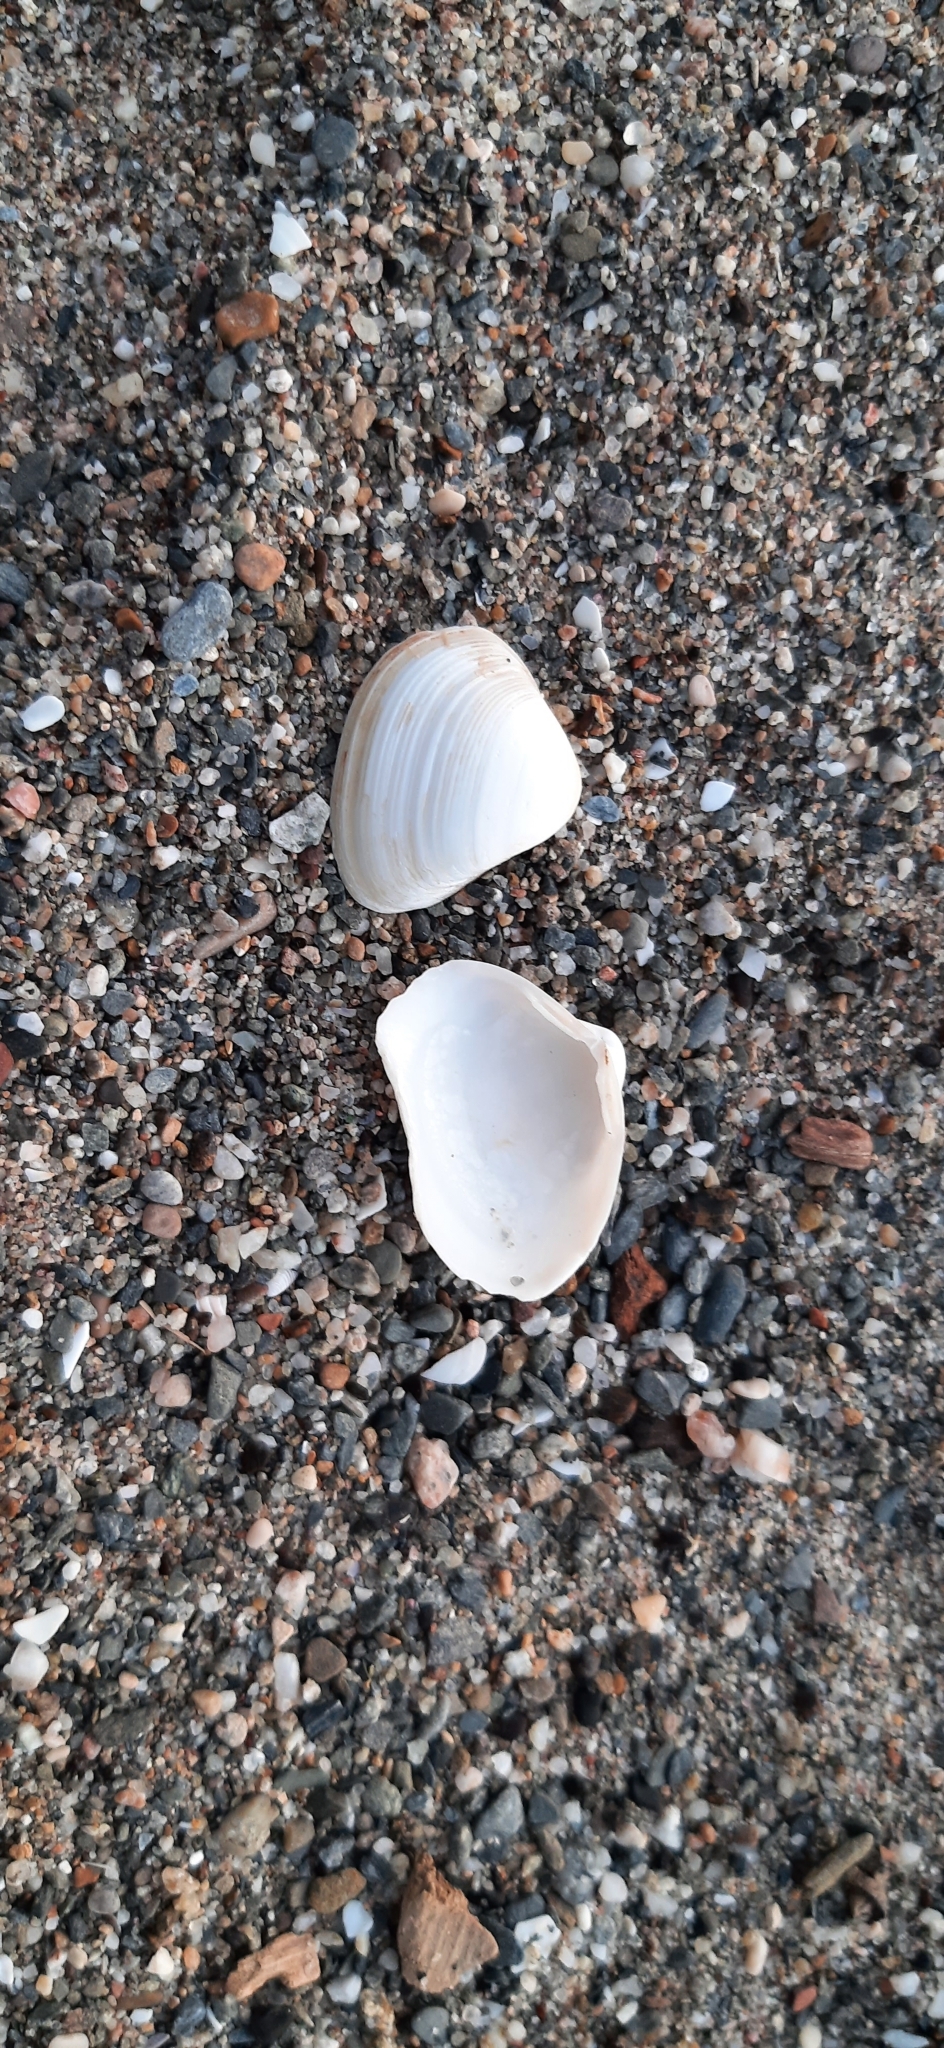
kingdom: Animalia
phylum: Mollusca
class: Bivalvia
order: Venerida
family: Mactridae
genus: Spisula
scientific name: Spisula subtruncata
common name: Cut trough shell
